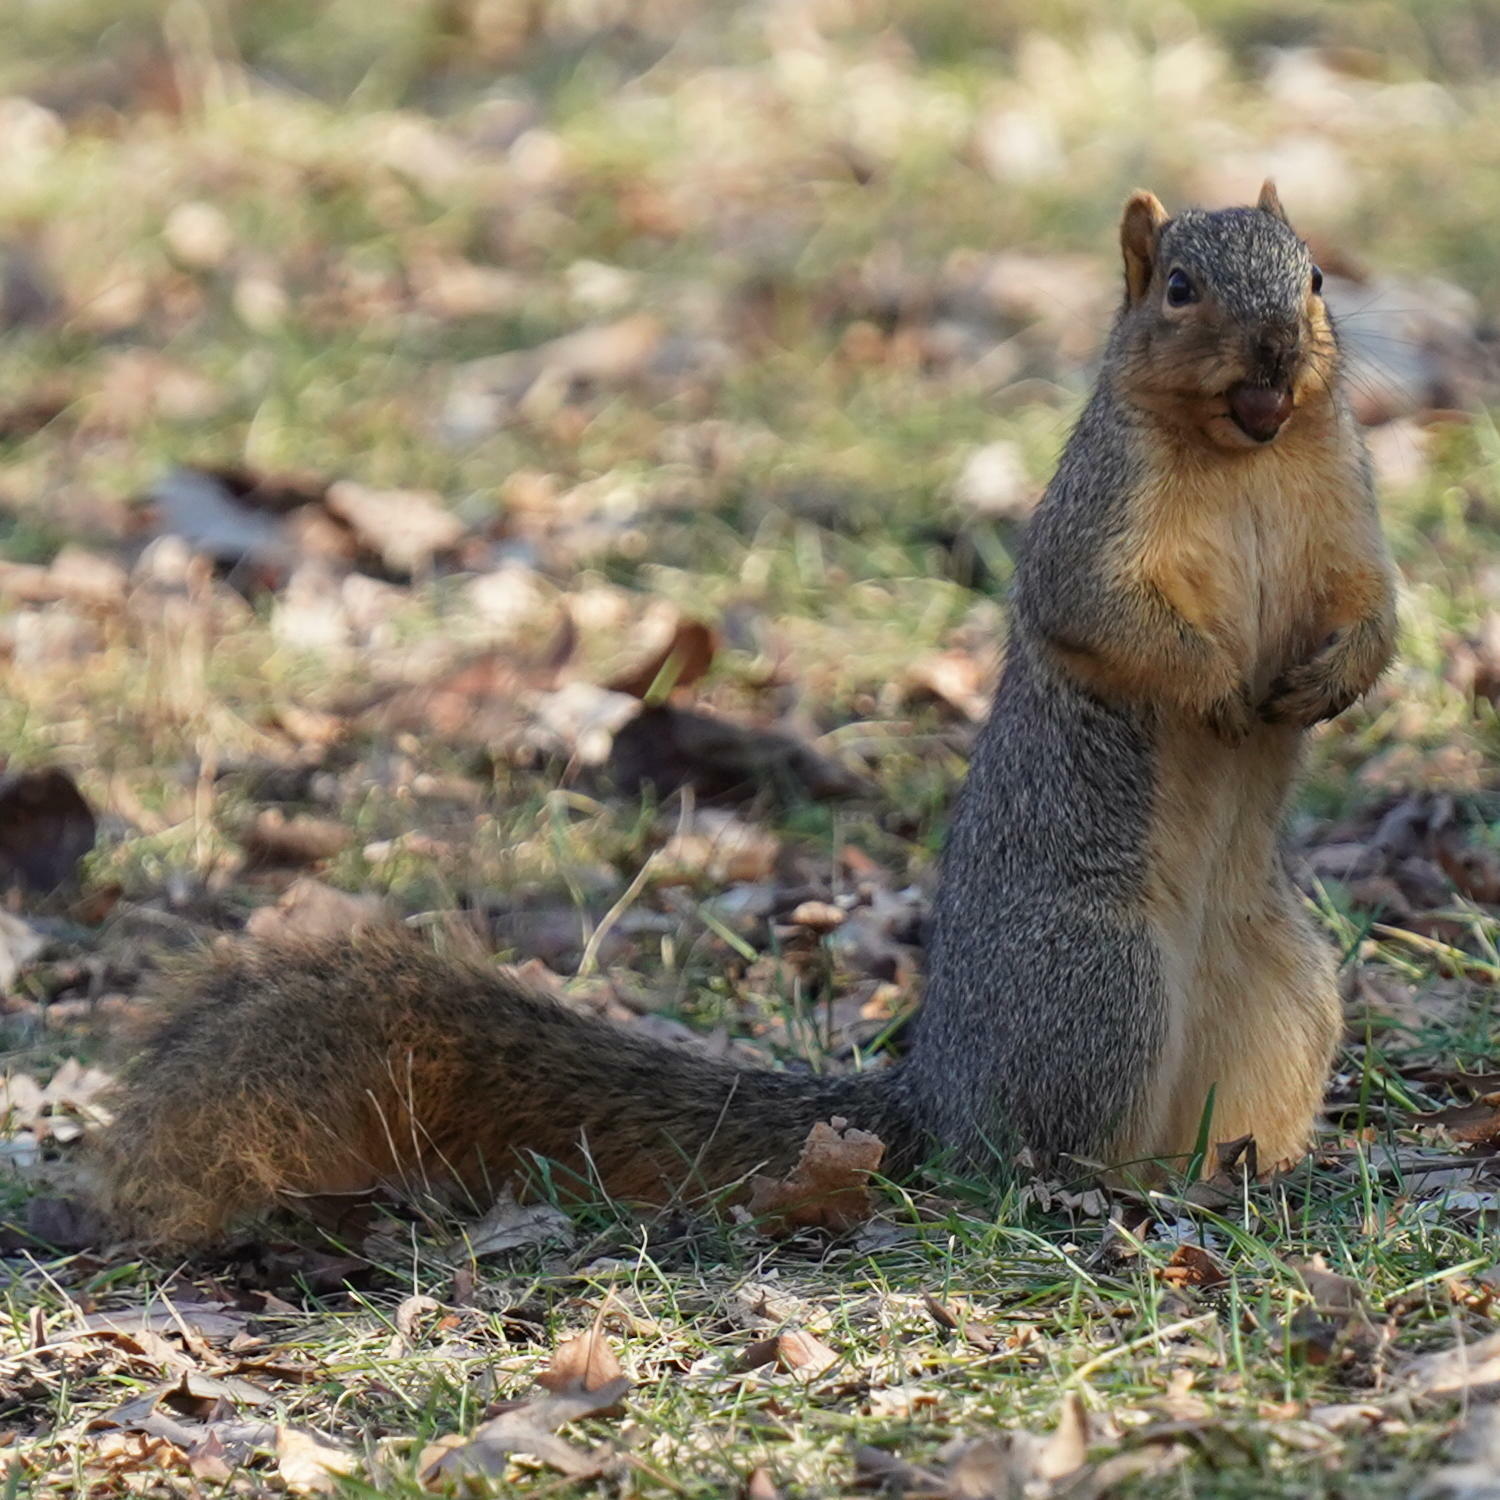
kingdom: Animalia
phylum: Chordata
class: Mammalia
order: Rodentia
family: Sciuridae
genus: Sciurus
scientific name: Sciurus niger
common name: Fox squirrel
